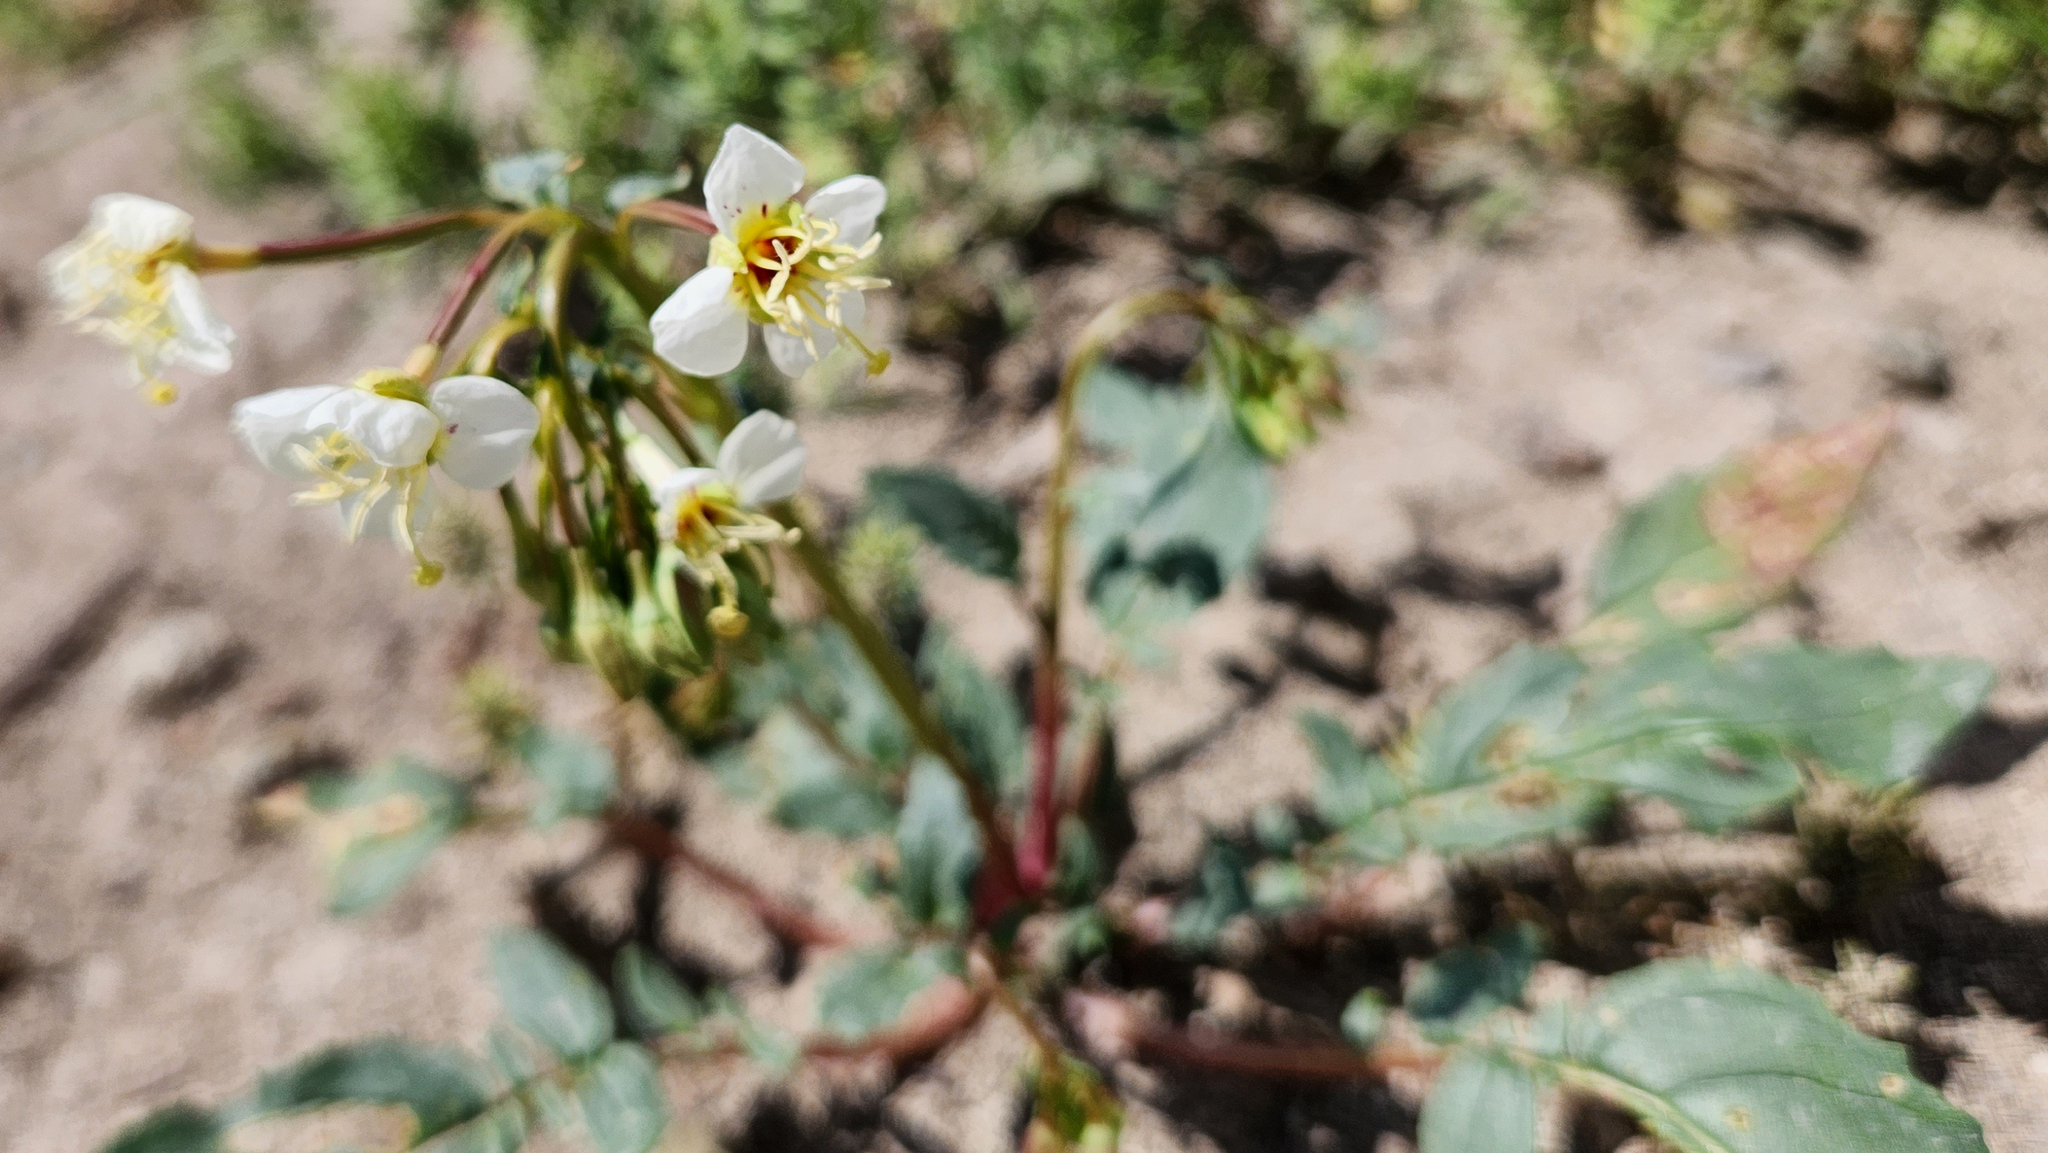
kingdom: Plantae
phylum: Tracheophyta
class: Magnoliopsida
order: Myrtales
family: Onagraceae
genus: Chylismia
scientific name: Chylismia claviformis
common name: Browneyes
